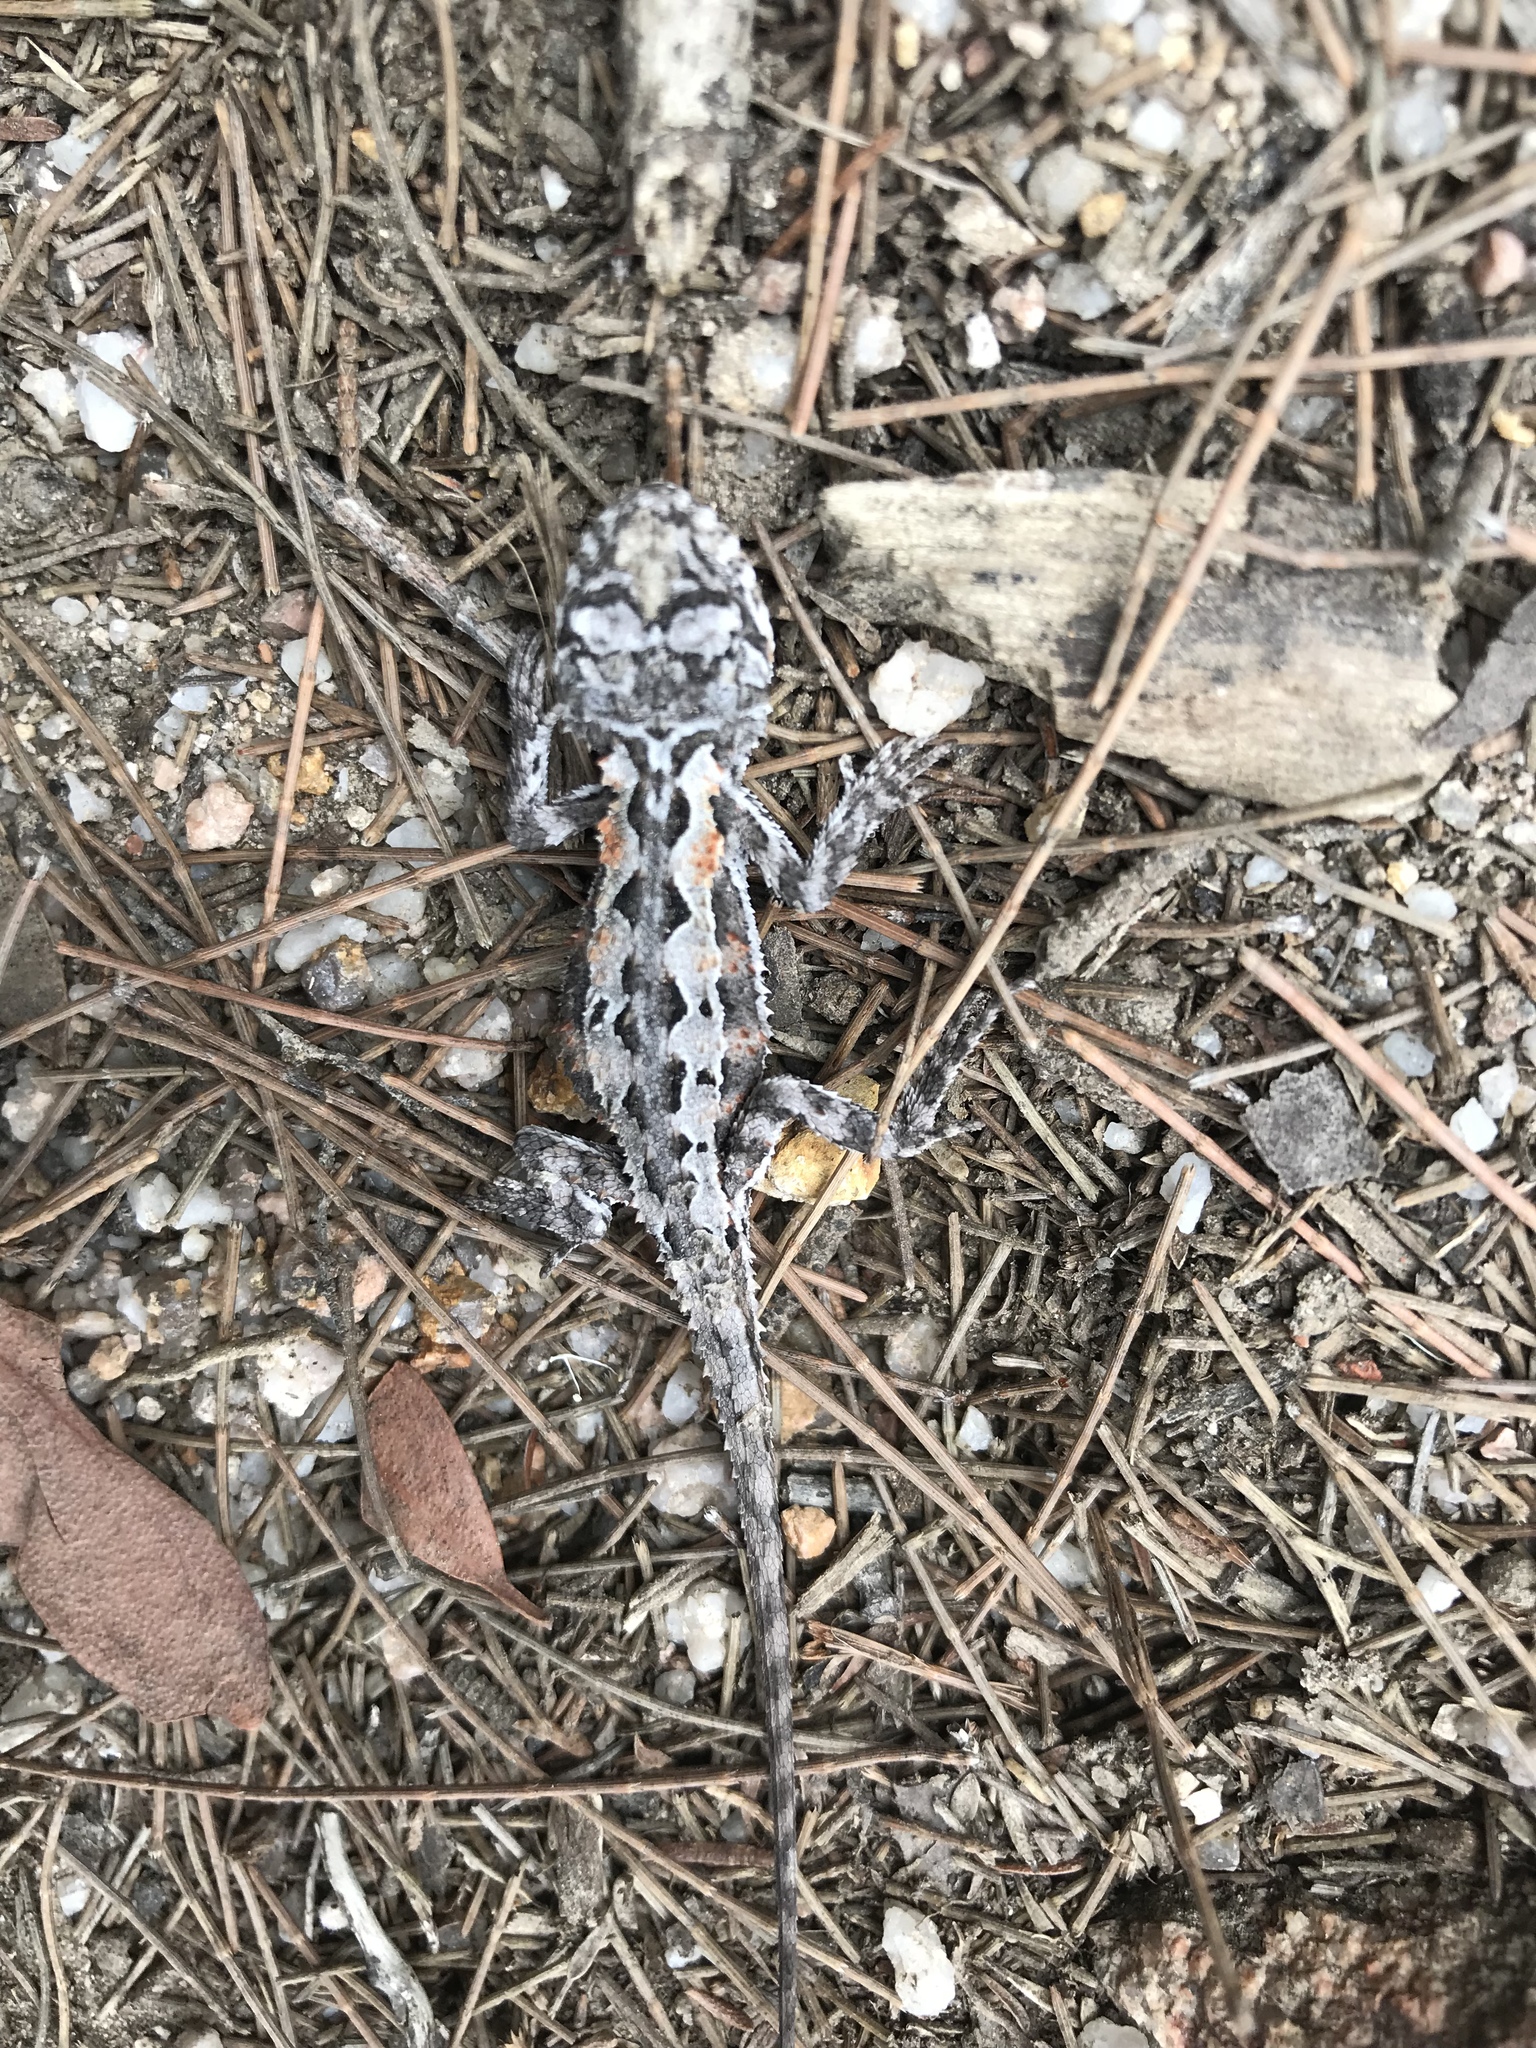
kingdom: Animalia
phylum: Chordata
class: Squamata
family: Agamidae
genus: Rankinia
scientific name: Rankinia diemensis
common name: Mountain dragon
